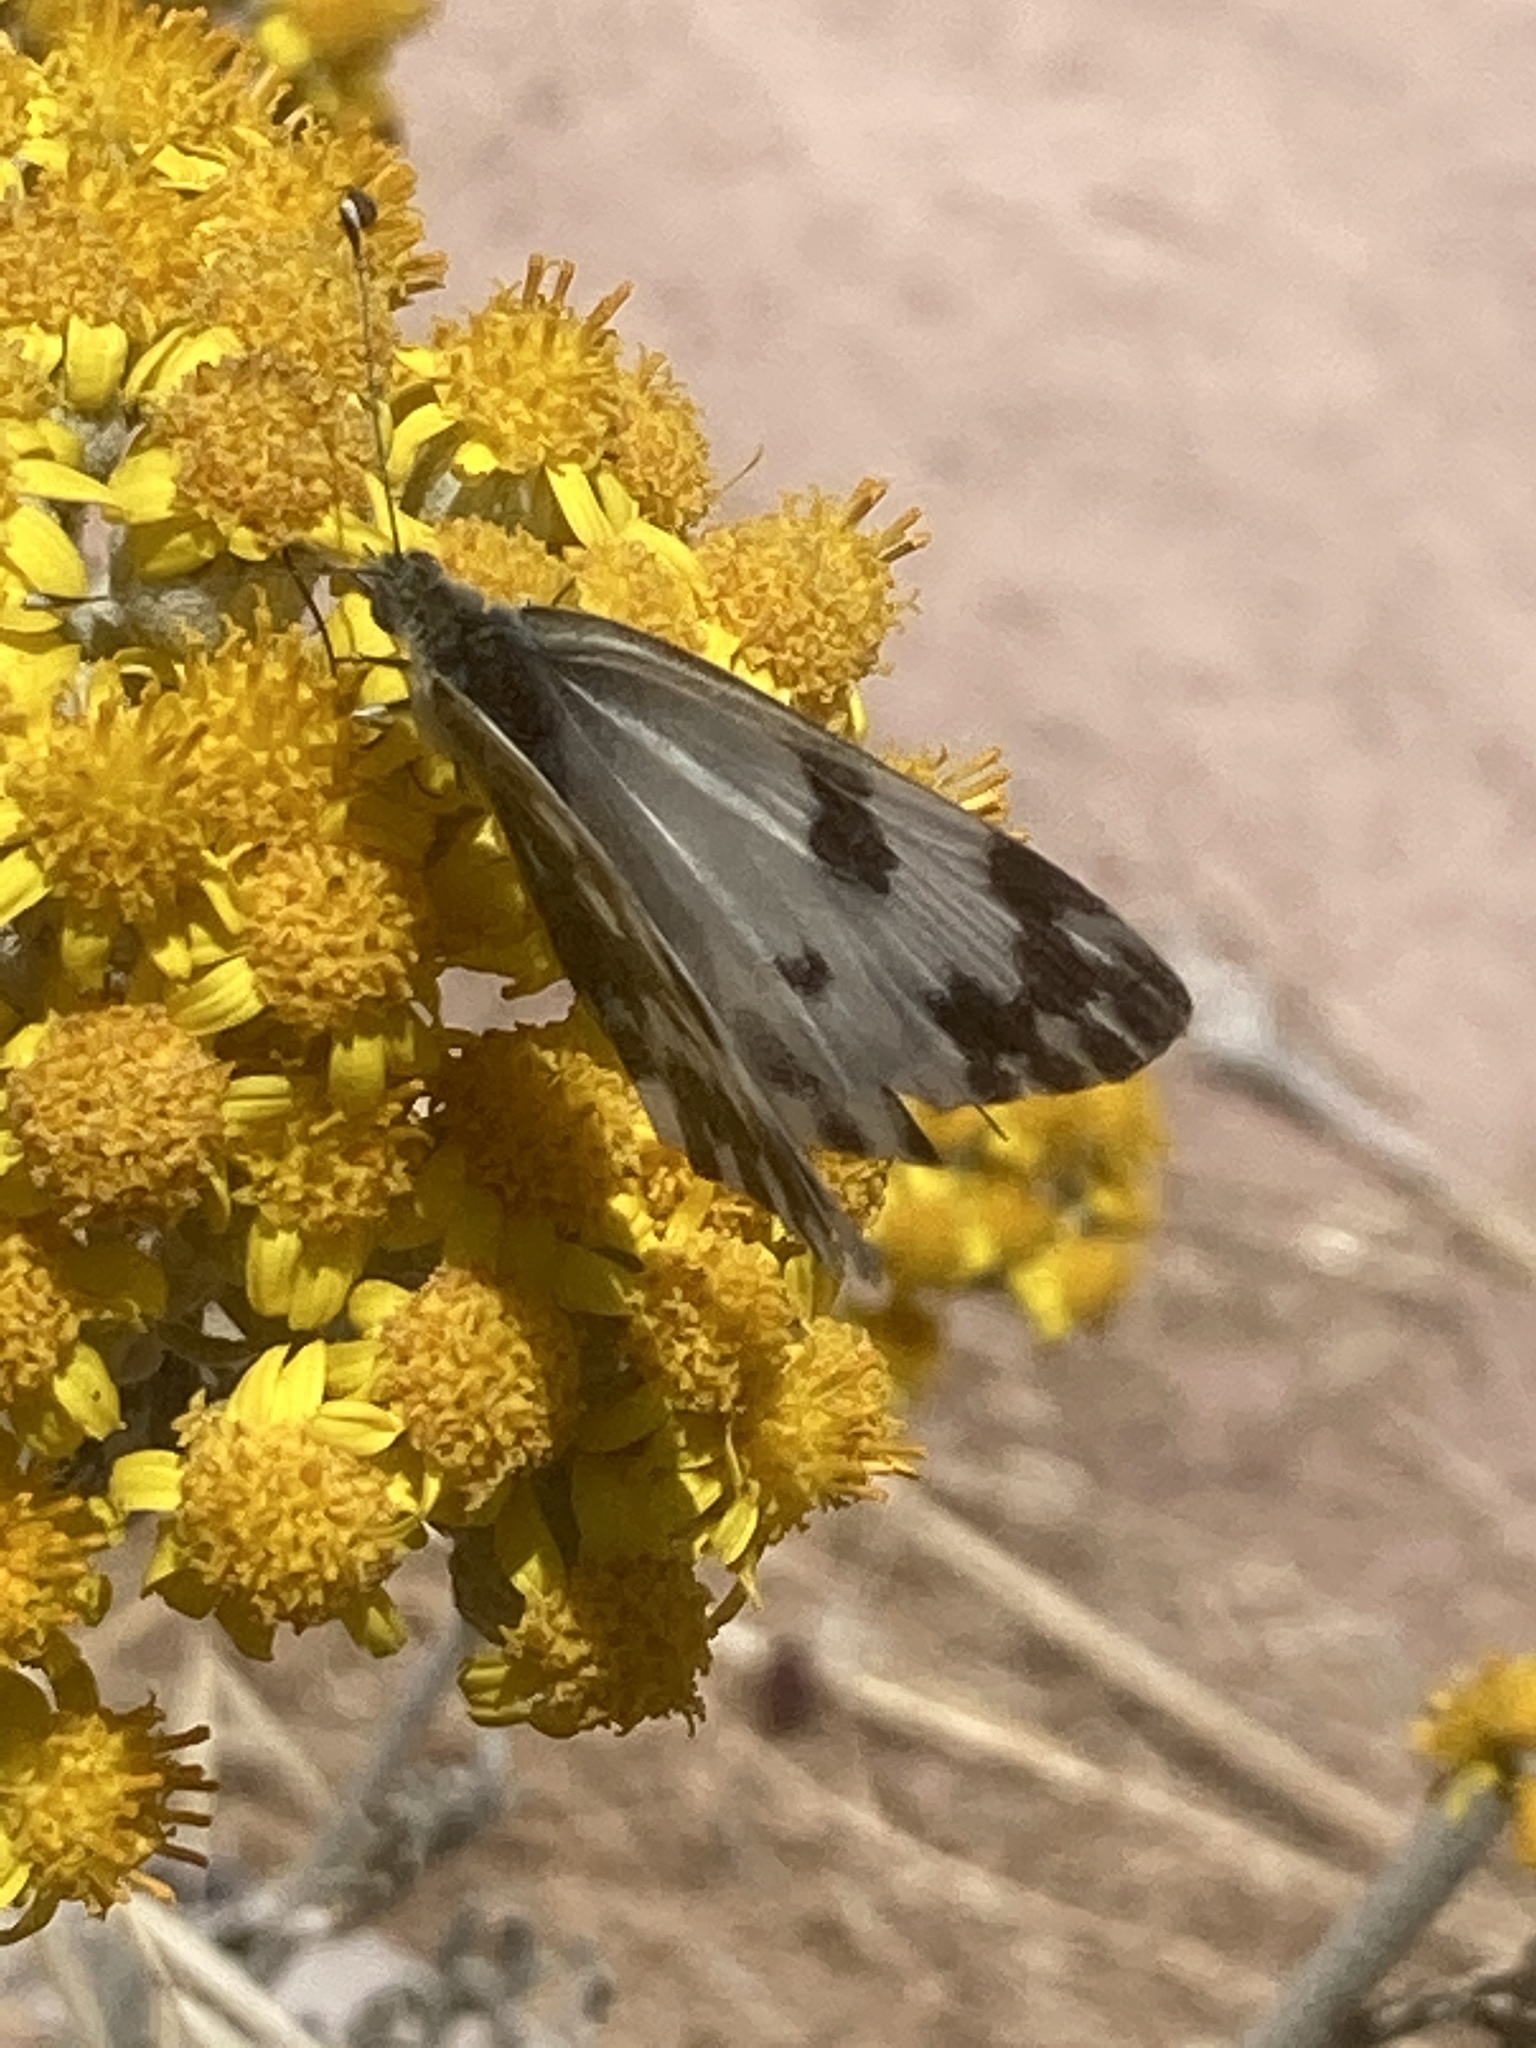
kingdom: Animalia
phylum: Arthropoda
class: Insecta
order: Lepidoptera
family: Pieridae
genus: Pontia
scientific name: Pontia edusa
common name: Eastern bath white
